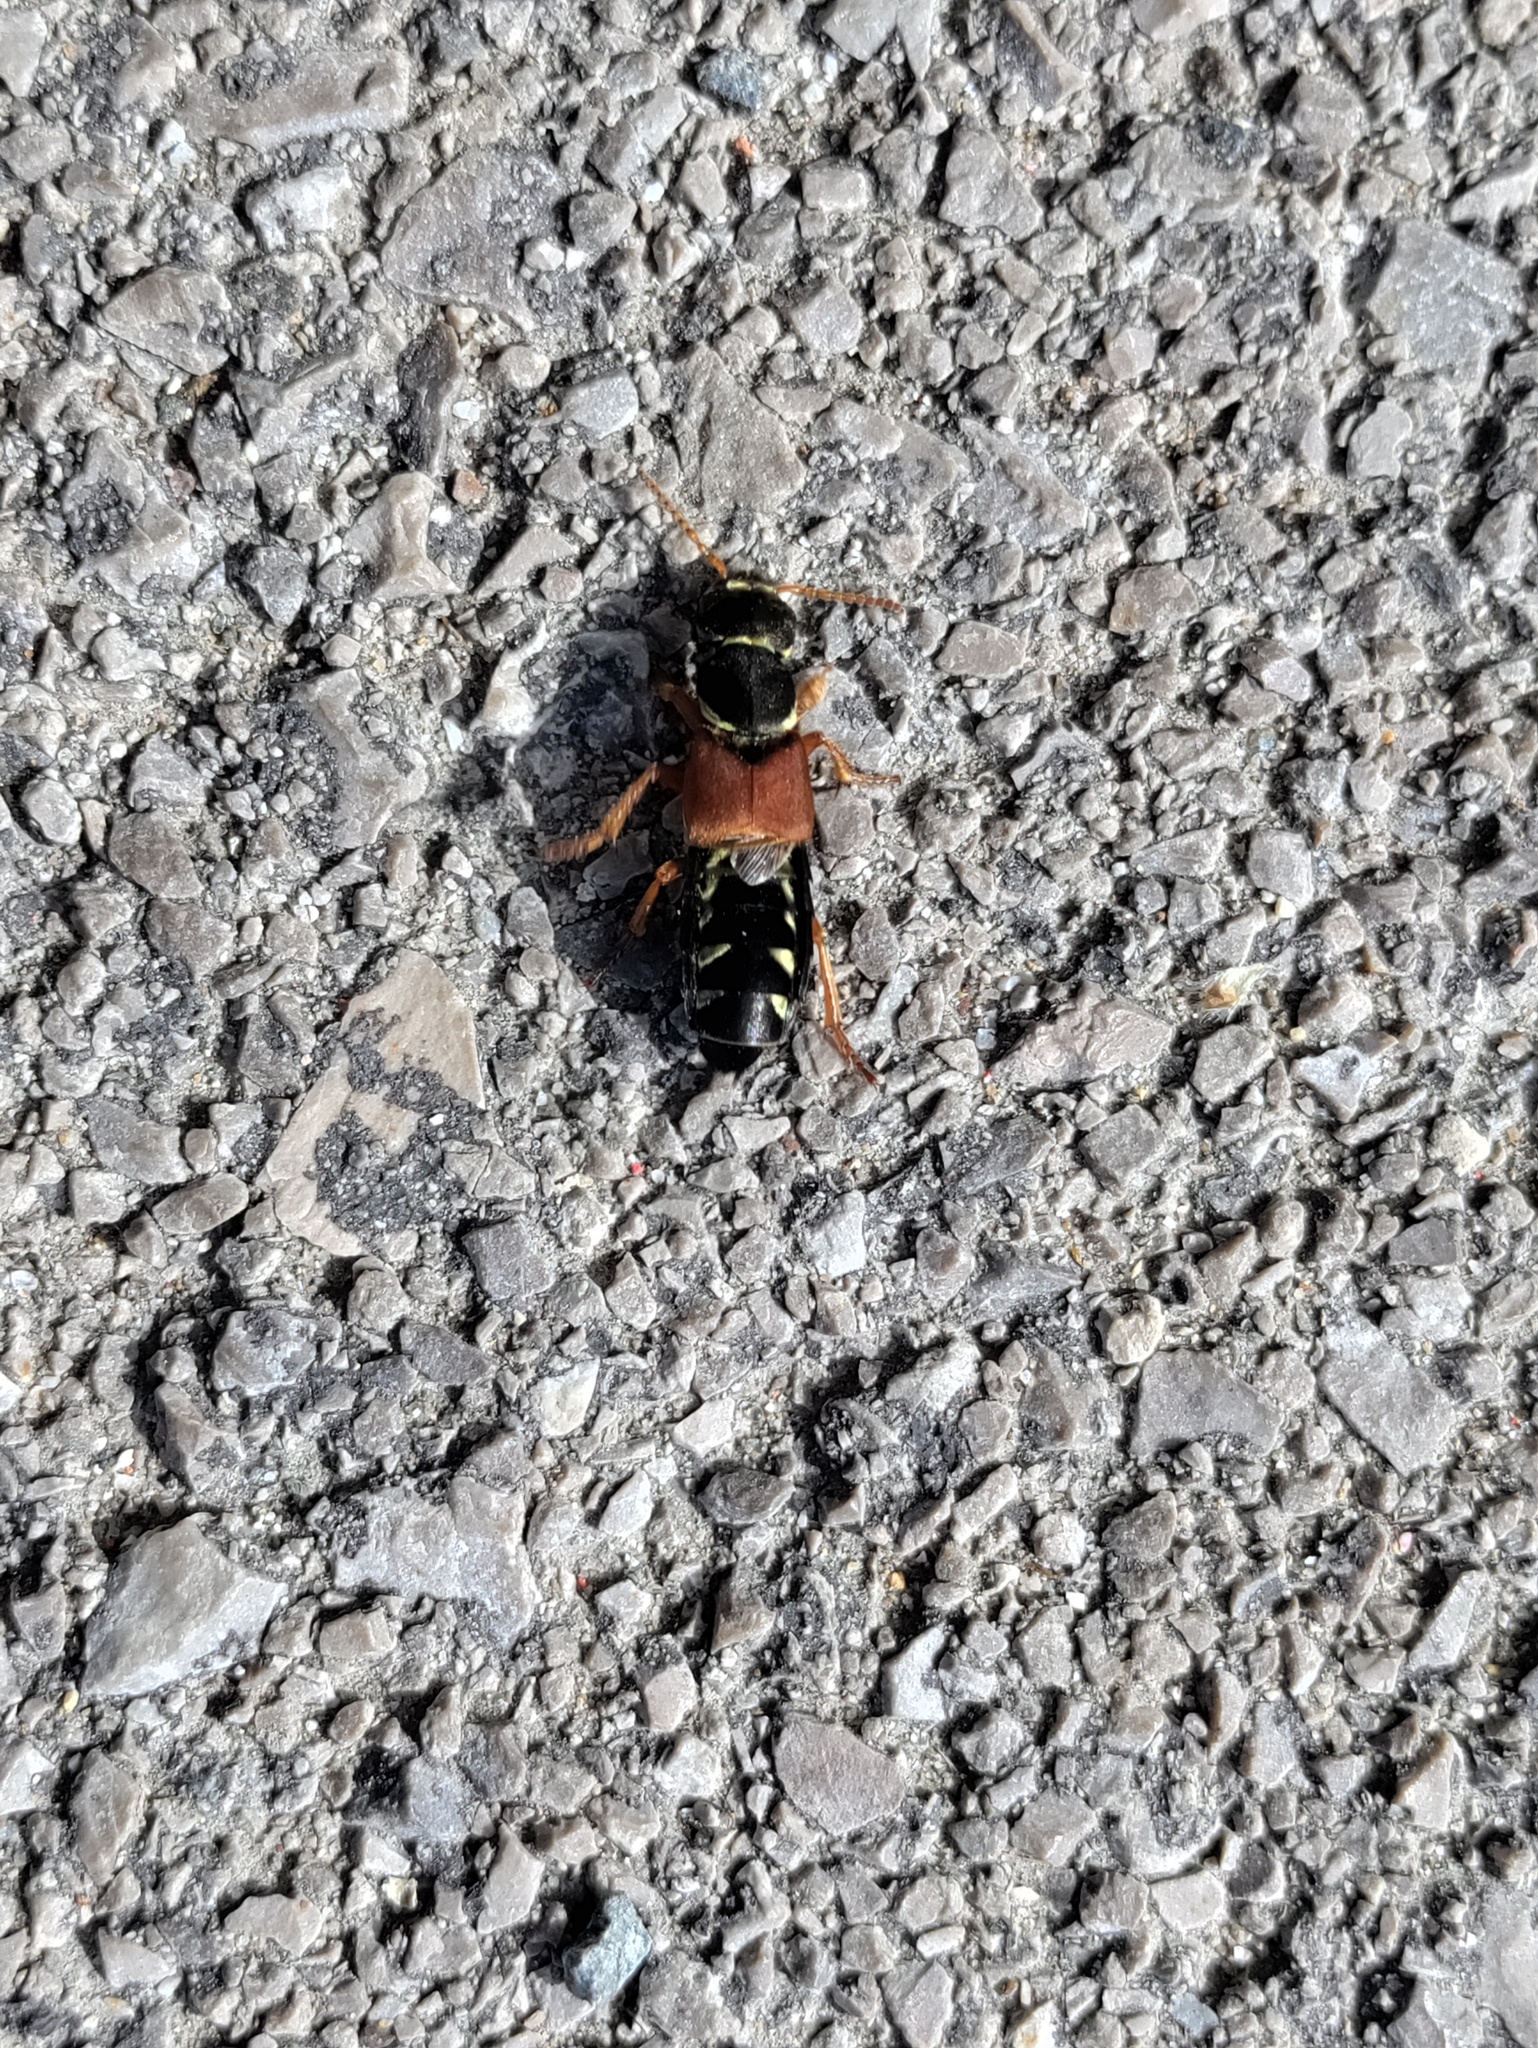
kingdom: Animalia
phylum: Arthropoda
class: Insecta
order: Coleoptera
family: Staphylinidae
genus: Staphylinus
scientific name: Staphylinus caesareus
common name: Staph beetle
